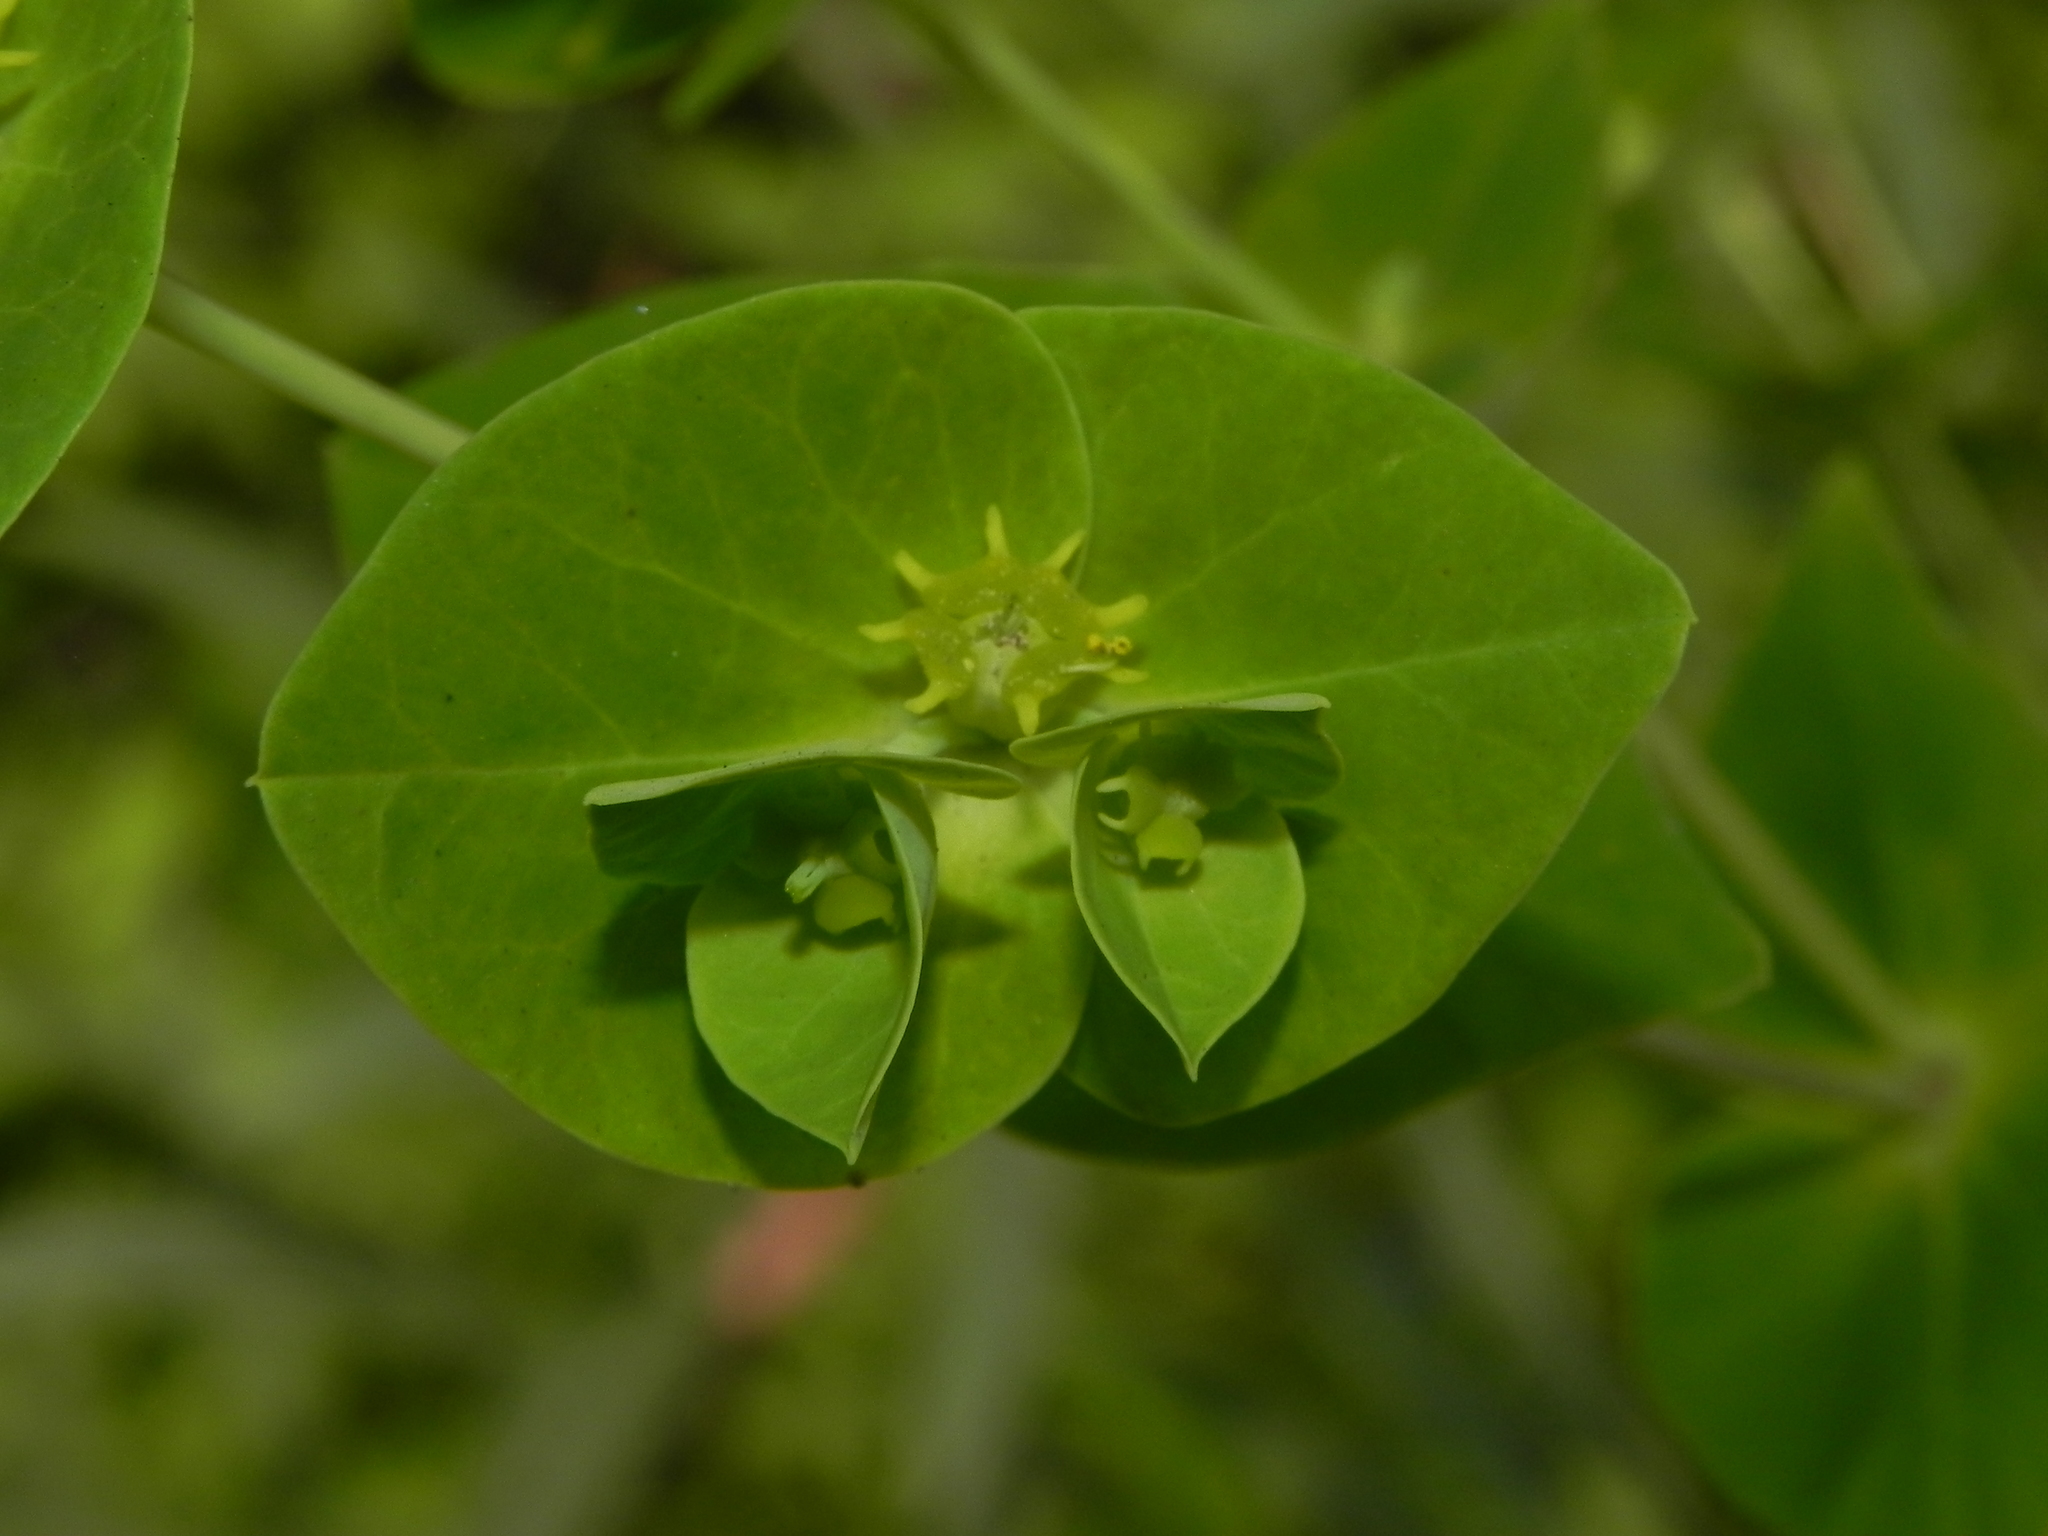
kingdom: Plantae
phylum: Tracheophyta
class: Magnoliopsida
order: Malpighiales
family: Euphorbiaceae
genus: Euphorbia
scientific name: Euphorbia rothiana
